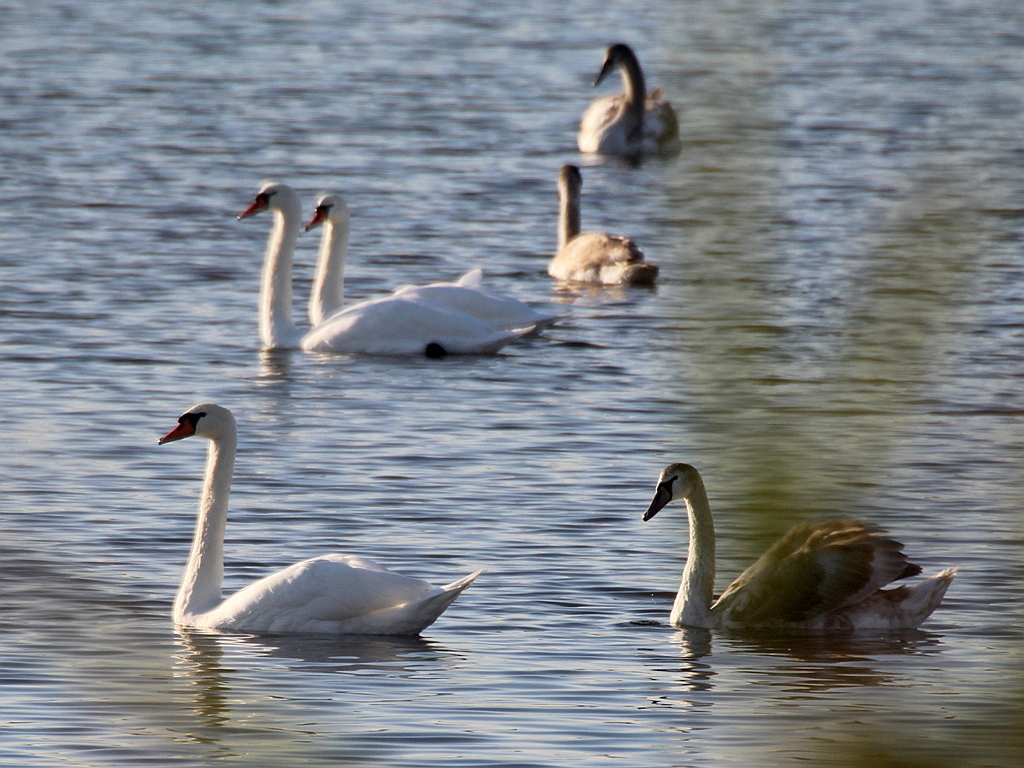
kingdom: Animalia
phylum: Chordata
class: Aves
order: Anseriformes
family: Anatidae
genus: Cygnus
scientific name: Cygnus olor
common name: Mute swan
